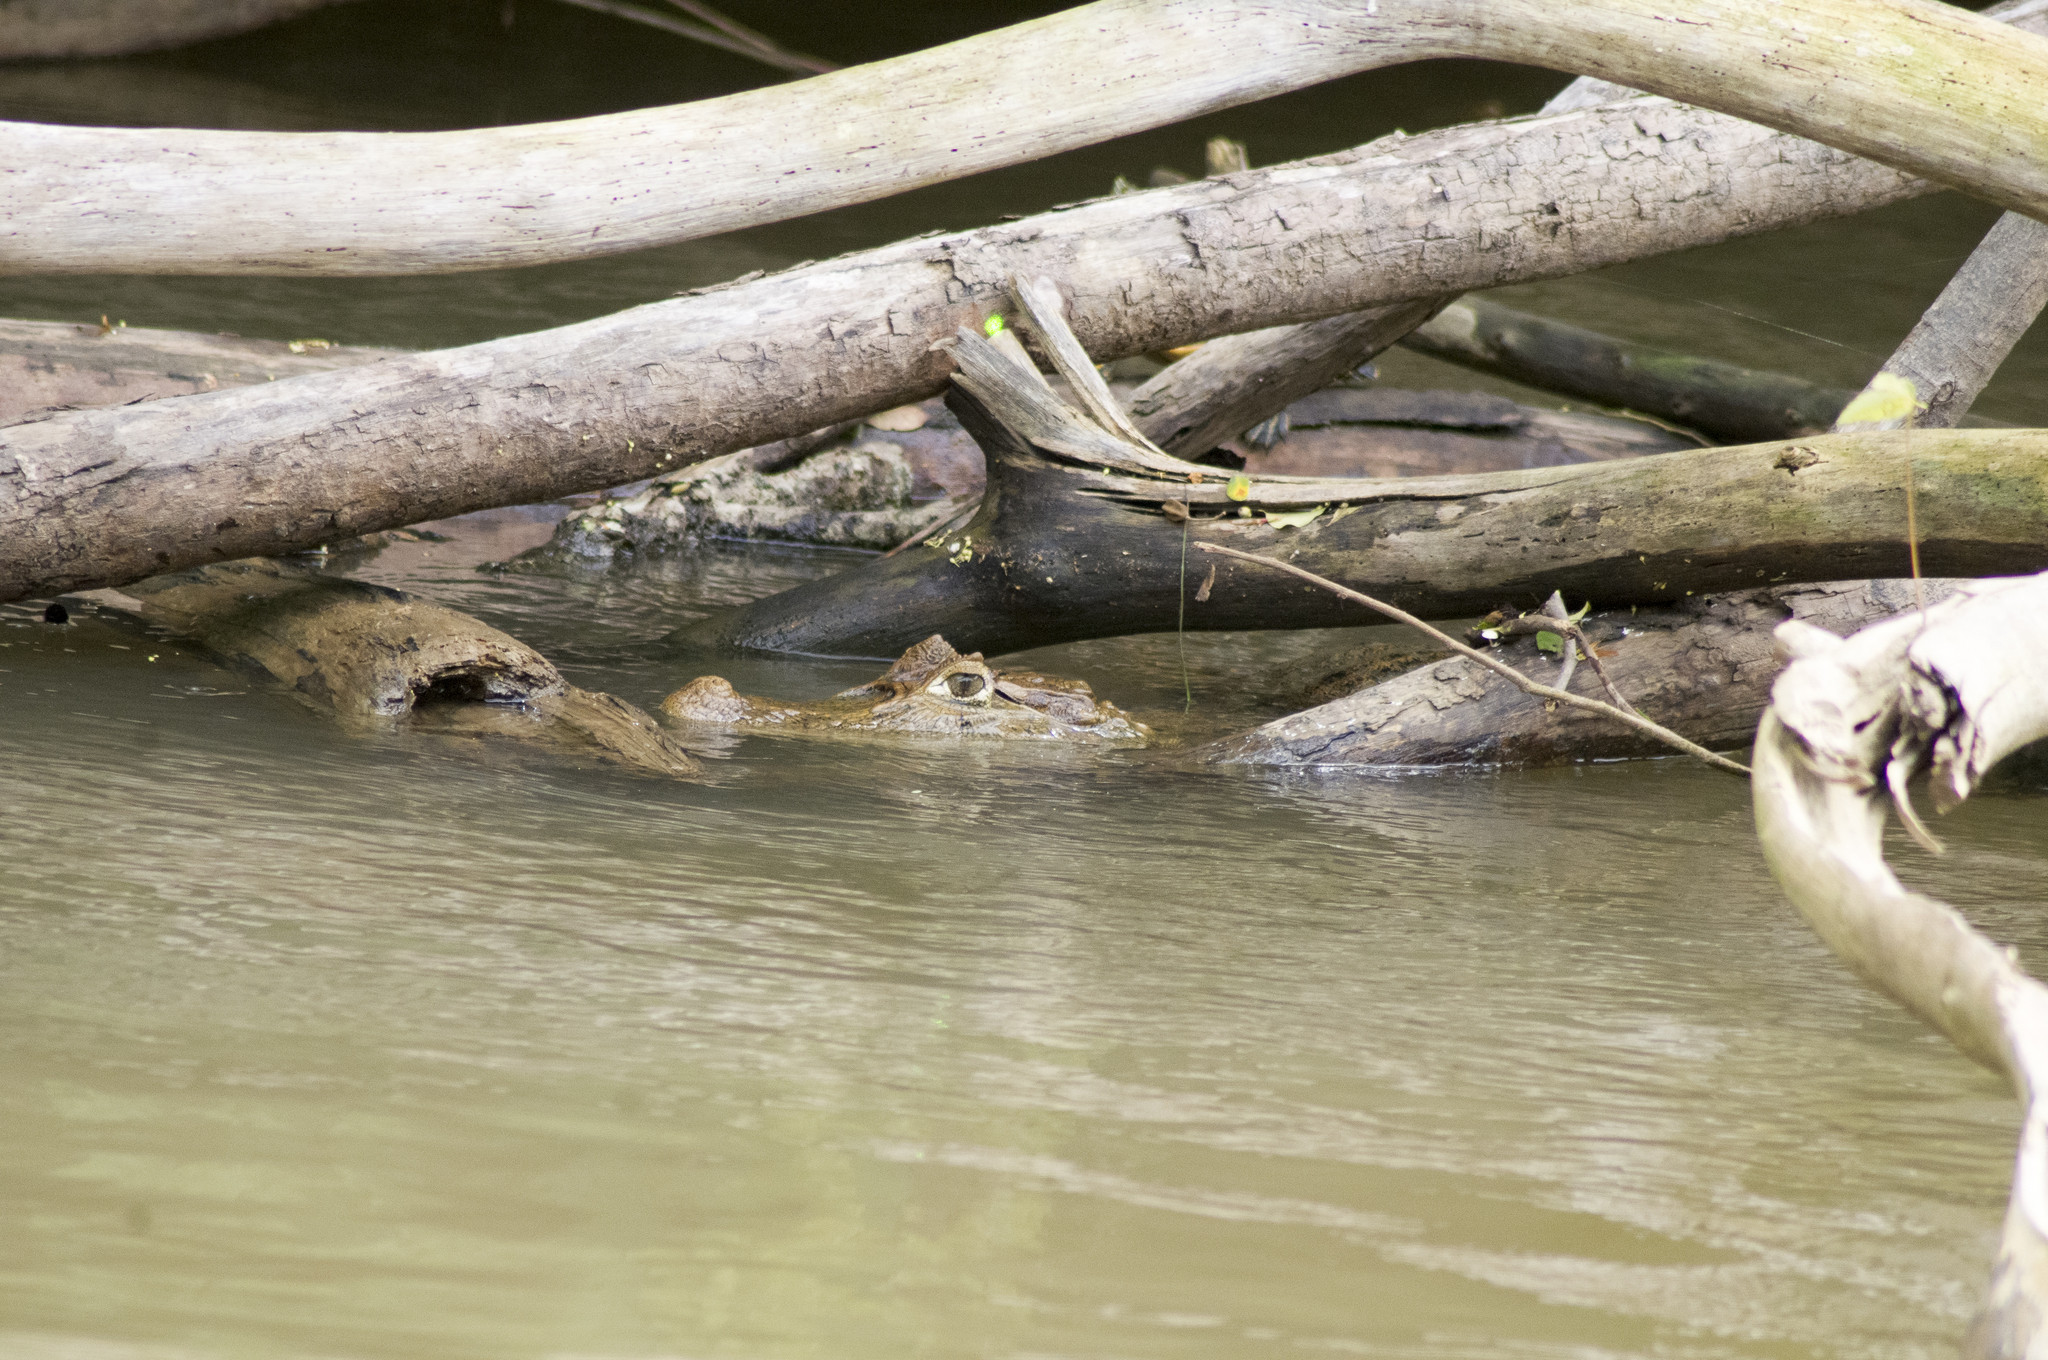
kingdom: Animalia
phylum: Chordata
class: Crocodylia
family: Alligatoridae
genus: Caiman
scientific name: Caiman crocodilus
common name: Common caiman
